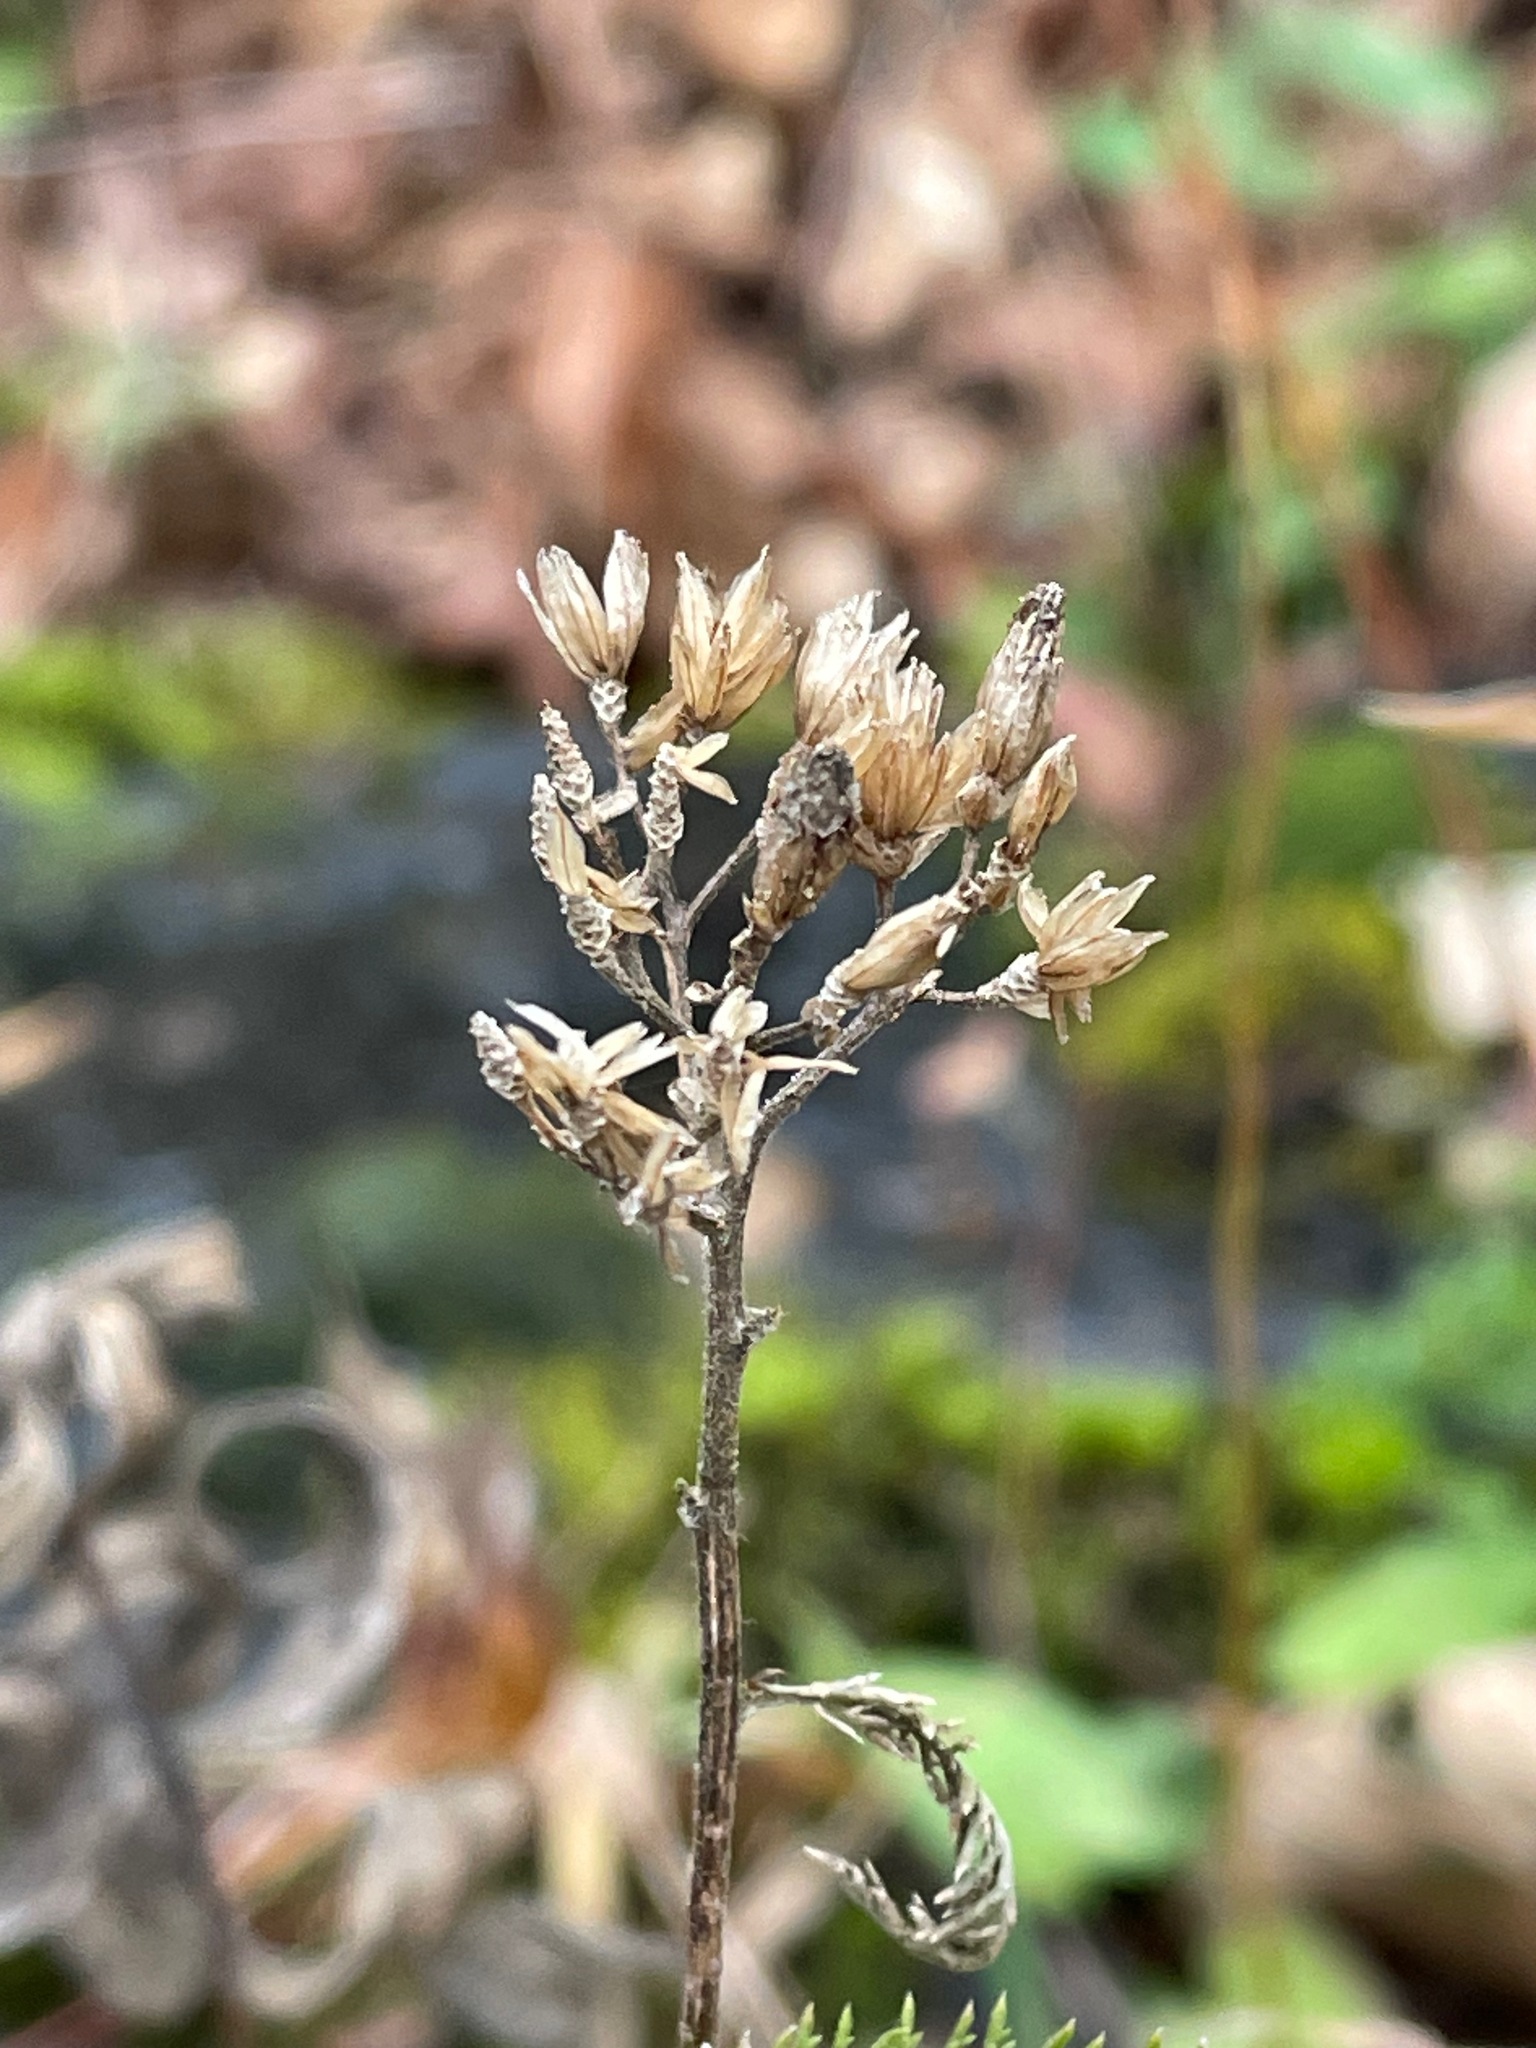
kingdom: Plantae
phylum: Tracheophyta
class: Magnoliopsida
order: Asterales
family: Asteraceae
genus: Achillea
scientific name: Achillea millefolium
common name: Yarrow
